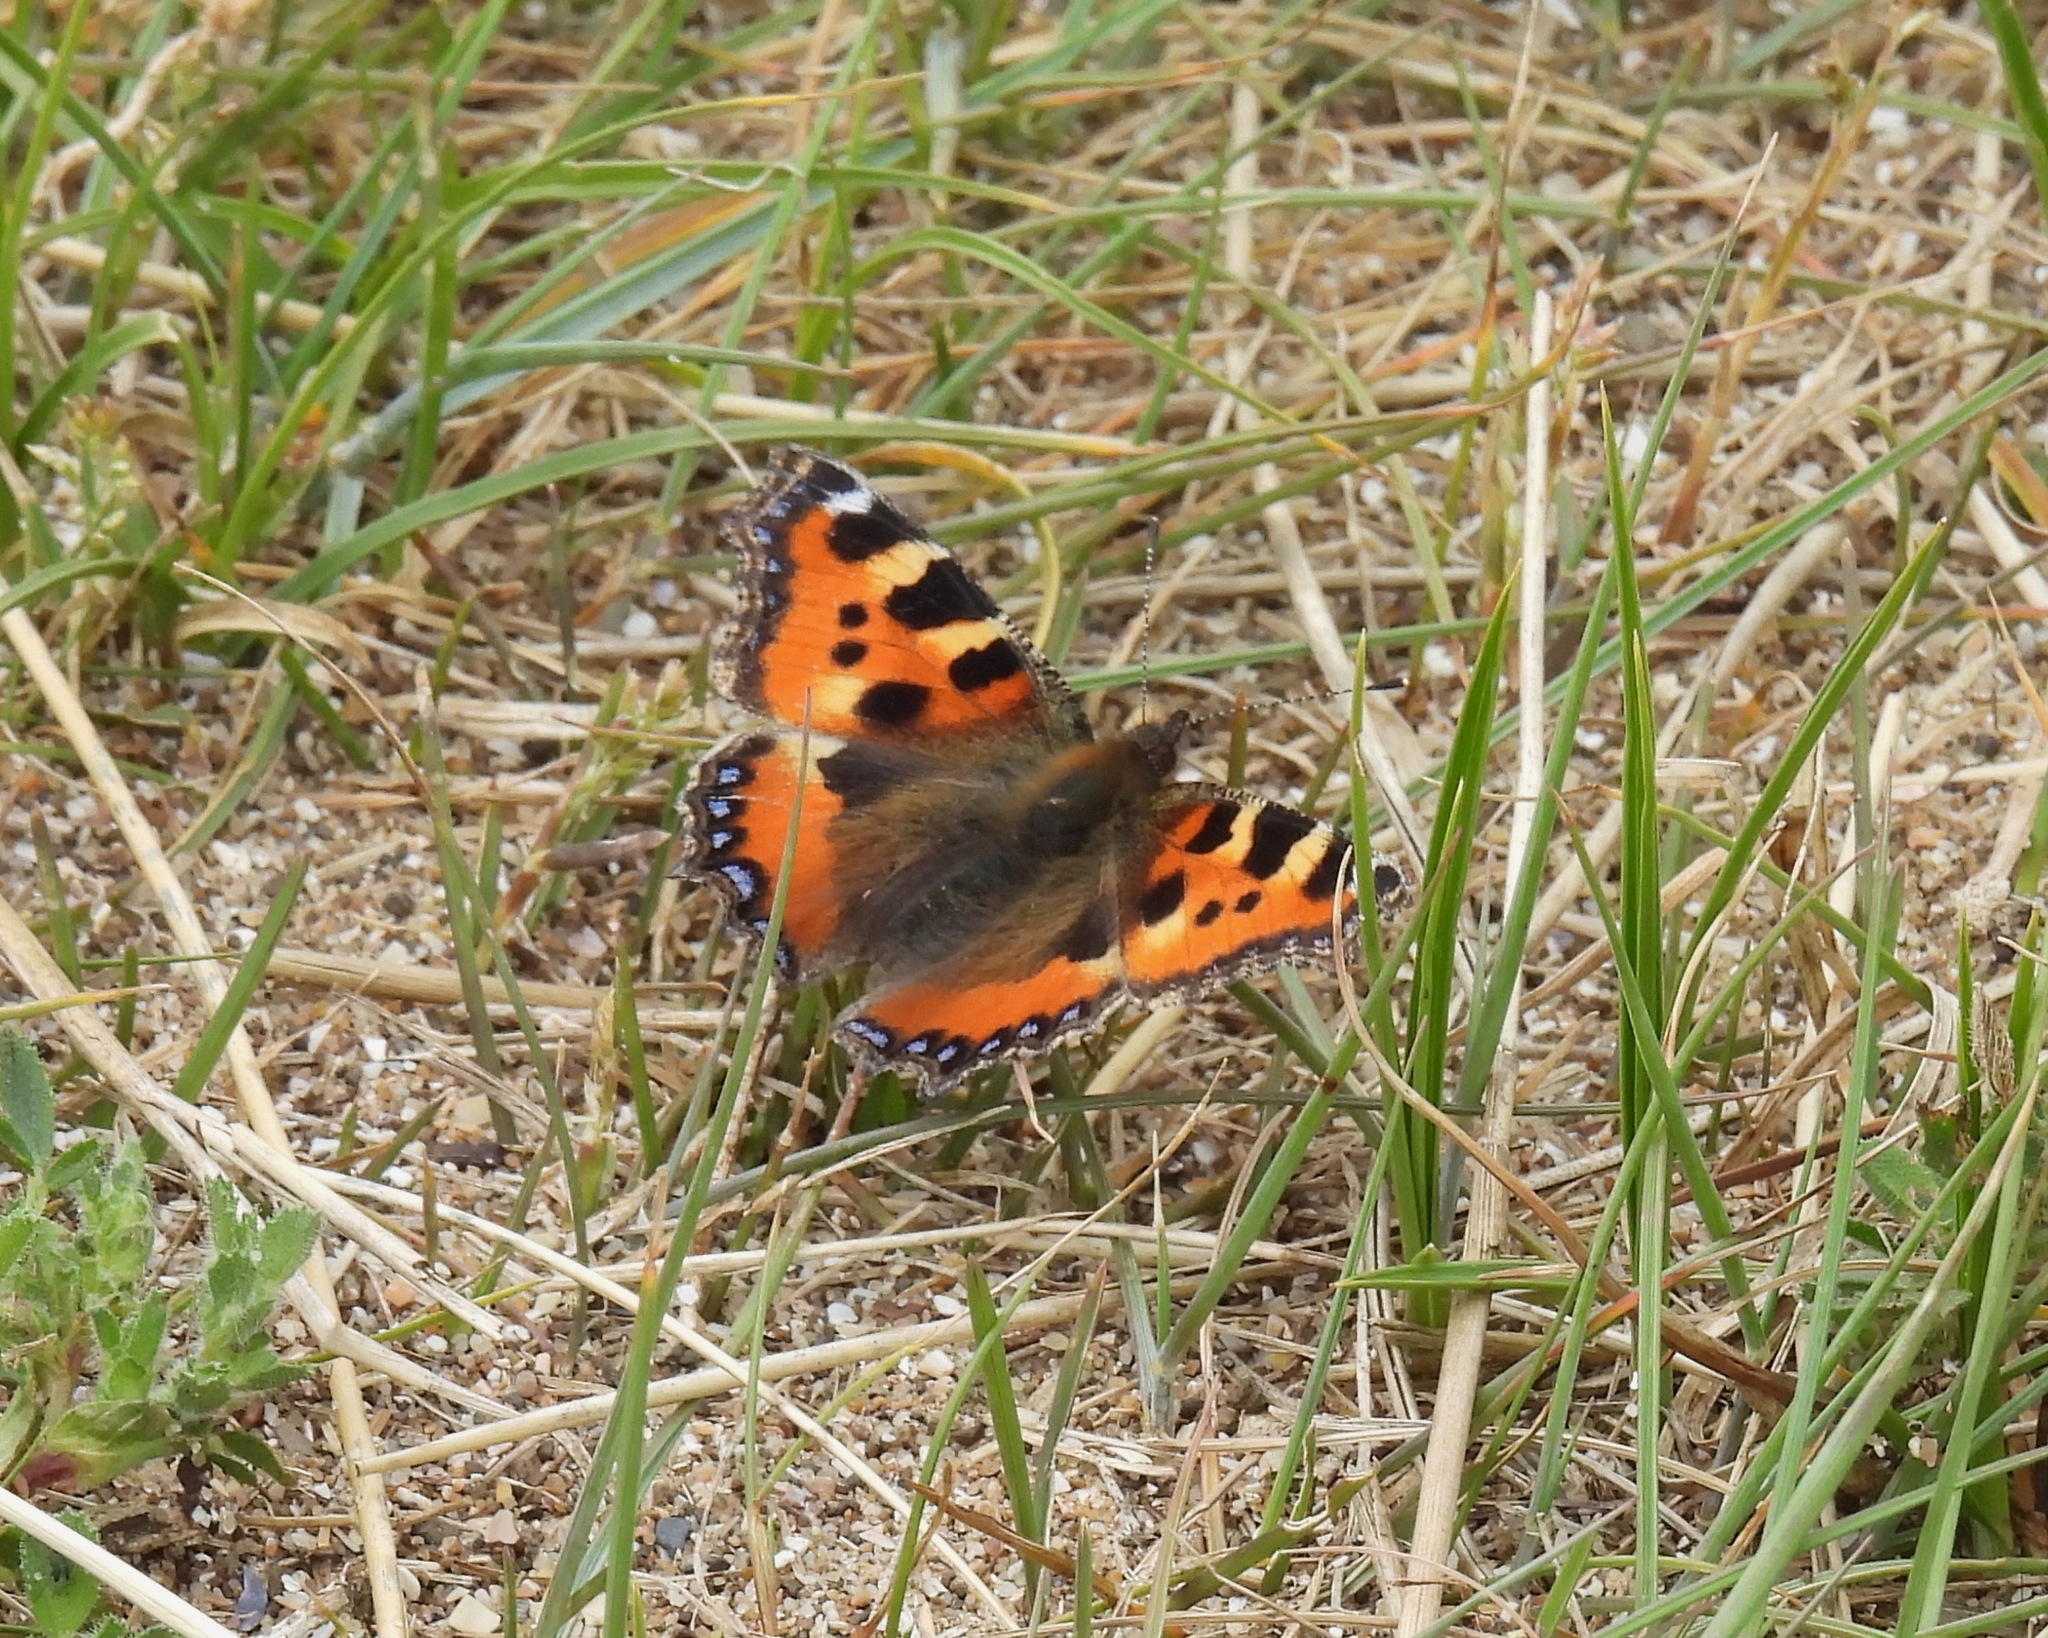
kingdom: Animalia
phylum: Arthropoda
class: Insecta
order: Lepidoptera
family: Nymphalidae
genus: Aglais
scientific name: Aglais urticae
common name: Small tortoiseshell
